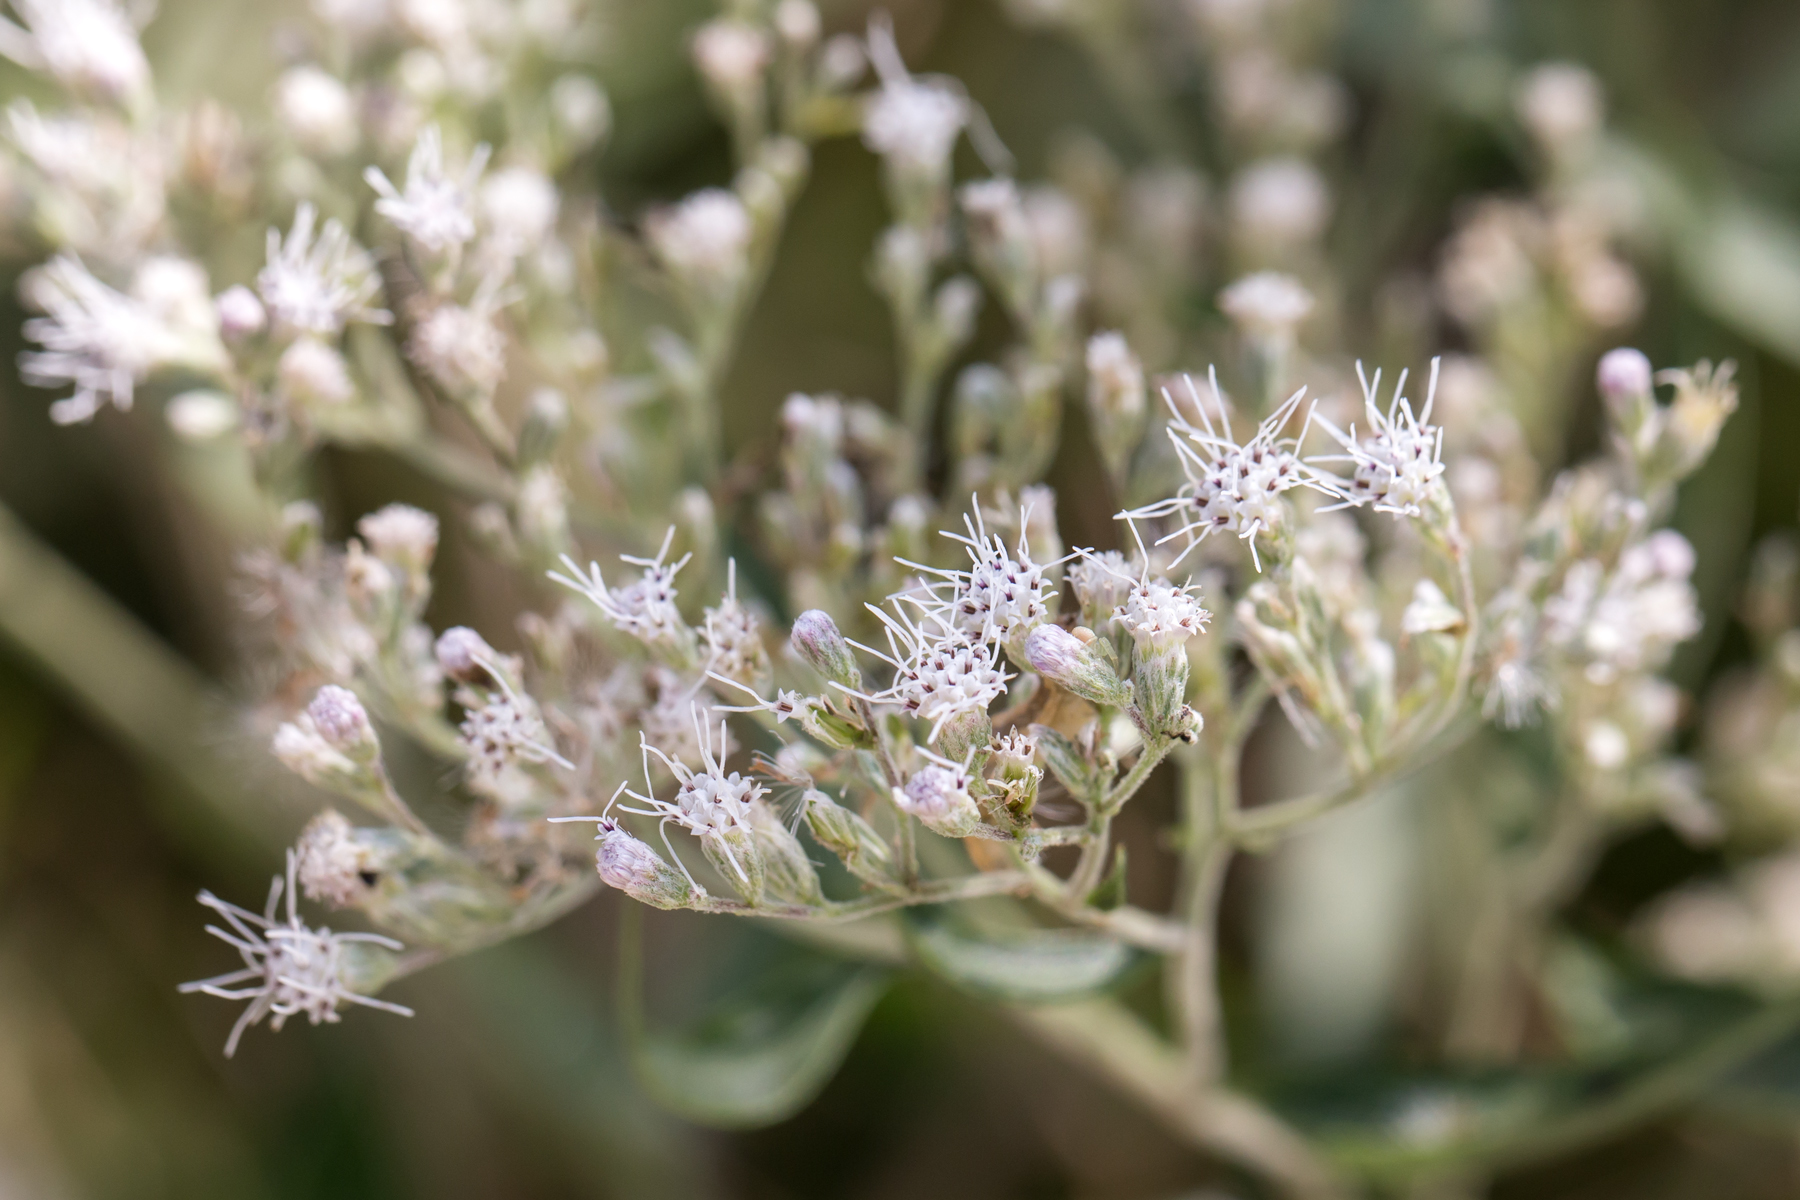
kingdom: Plantae
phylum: Tracheophyta
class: Magnoliopsida
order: Asterales
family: Asteraceae
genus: Eupatorium
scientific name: Eupatorium serotinum
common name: Late boneset
